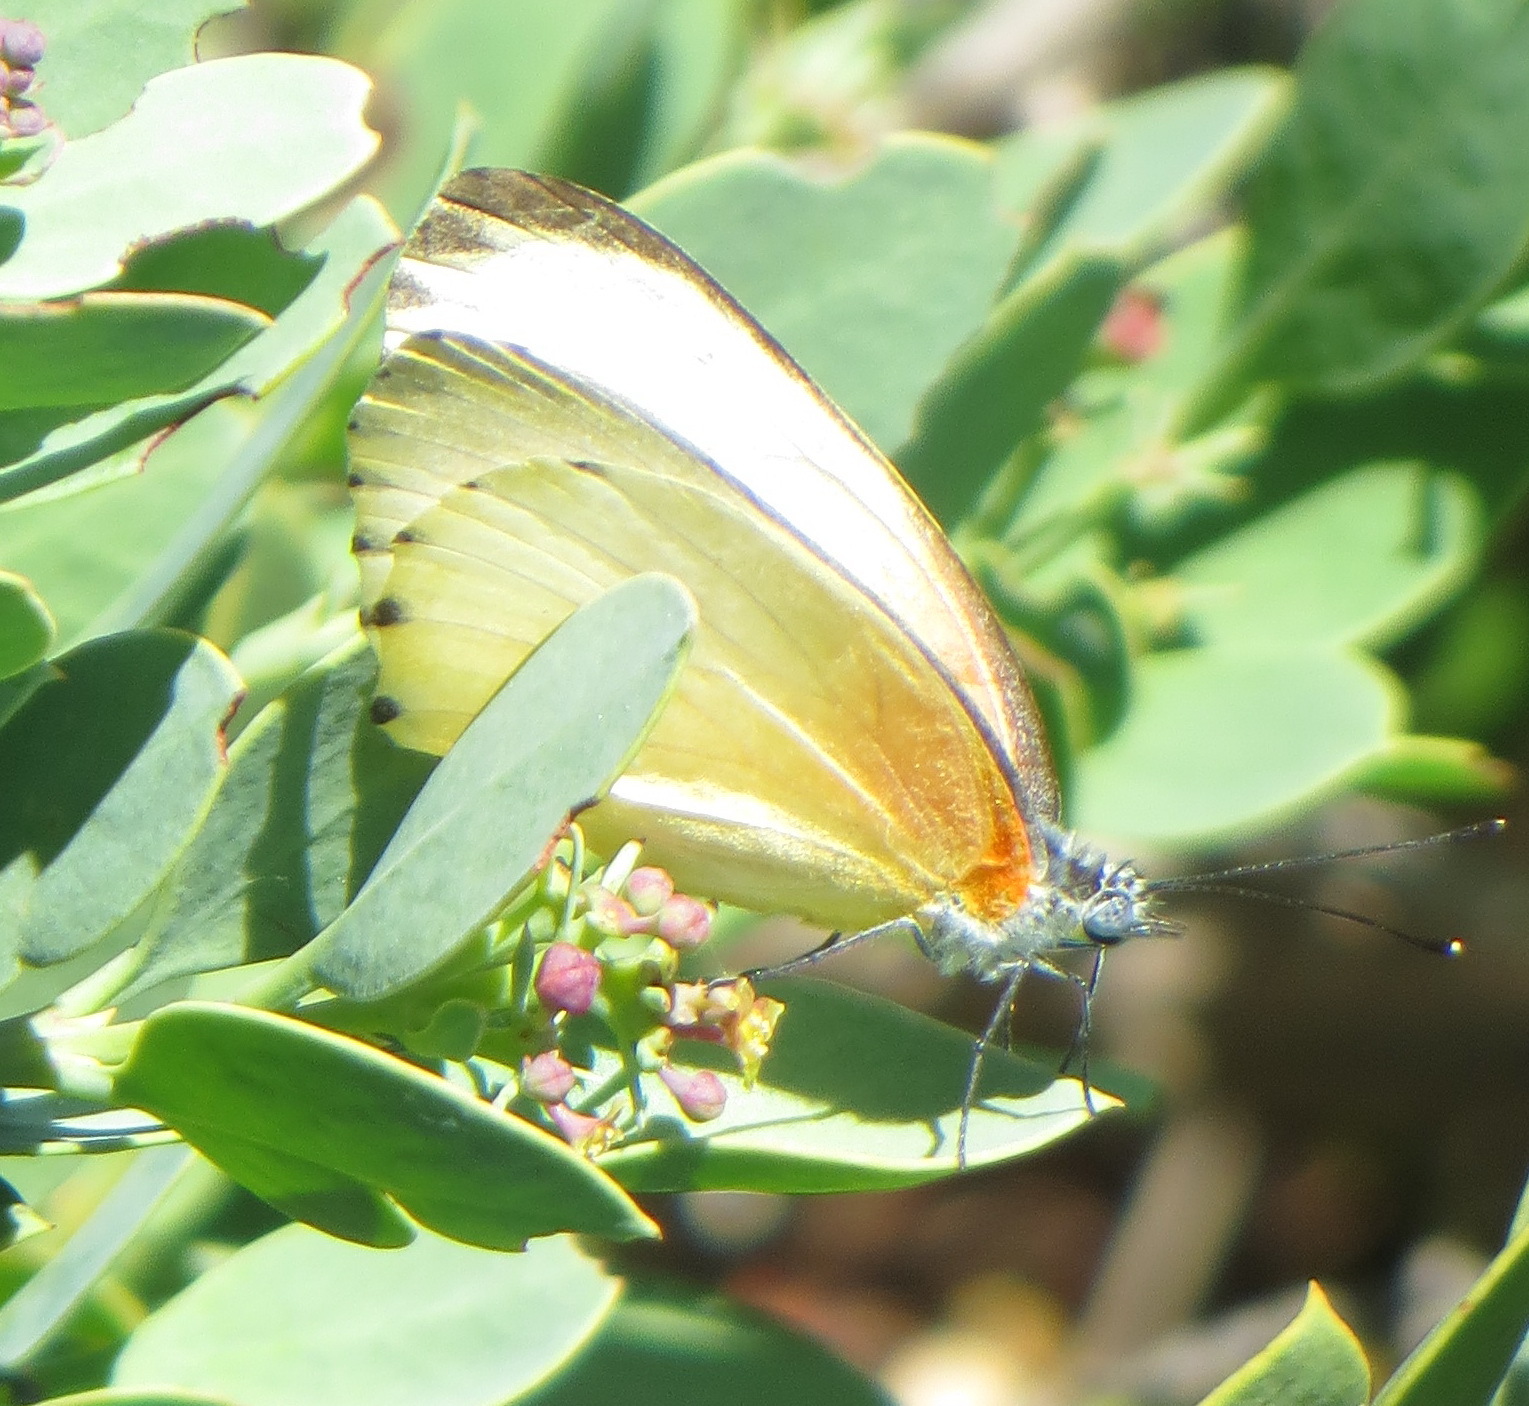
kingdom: Animalia
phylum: Arthropoda
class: Insecta
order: Lepidoptera
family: Pieridae
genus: Mylothris
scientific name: Mylothris agathina
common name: Eastern dotted border
